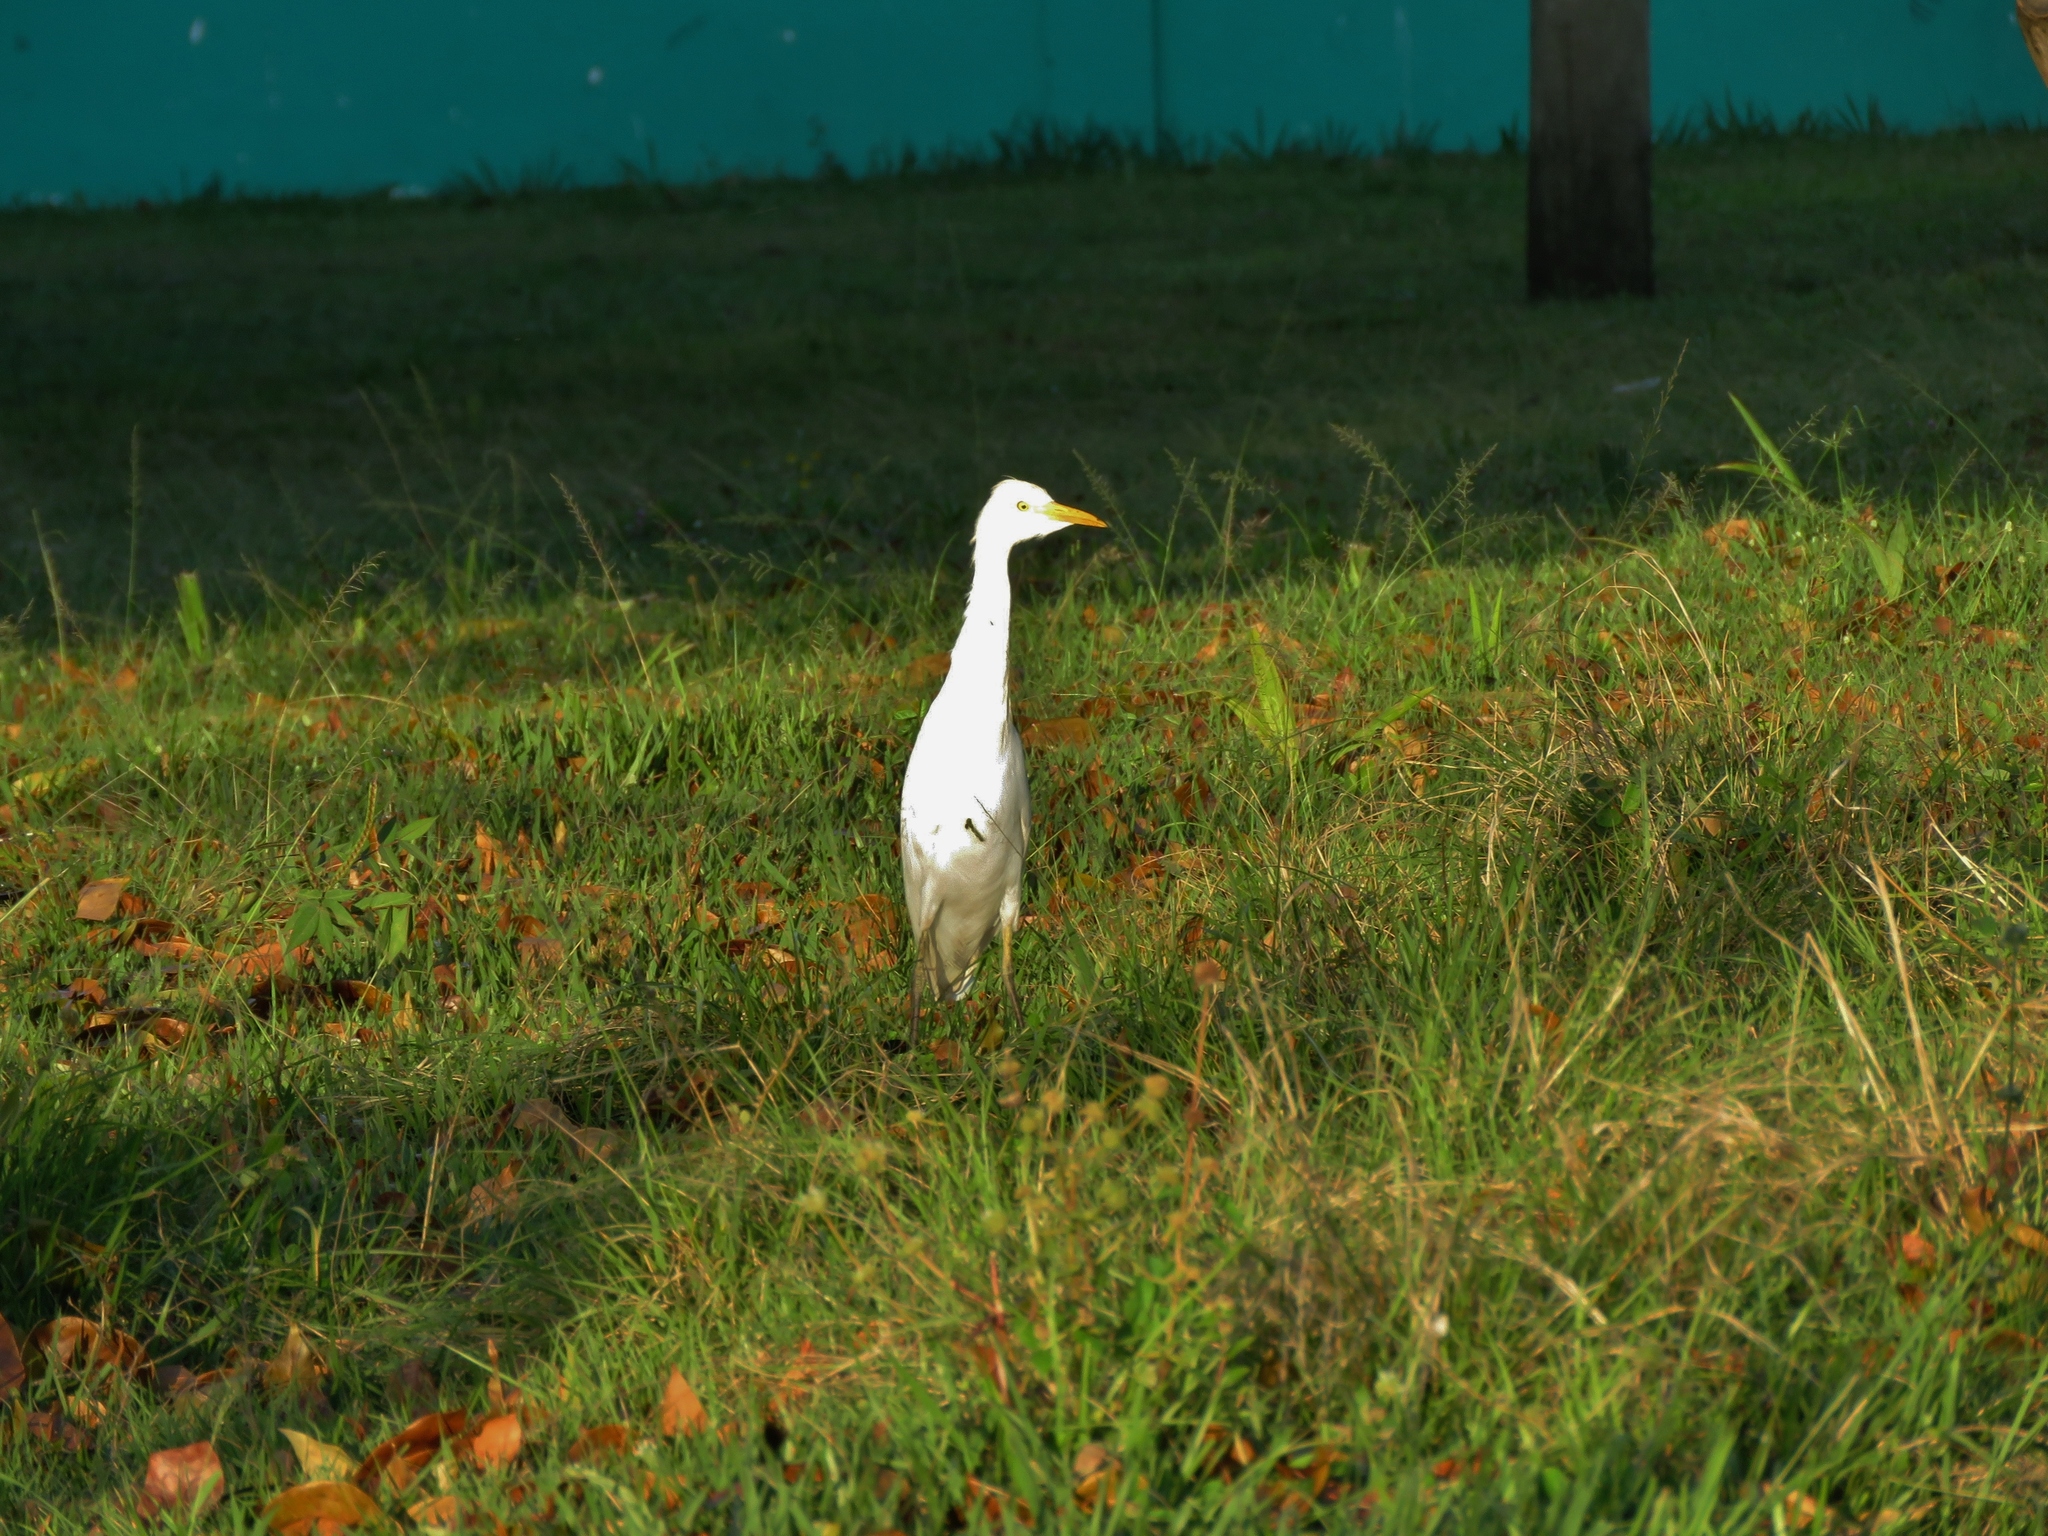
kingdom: Animalia
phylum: Chordata
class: Aves
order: Pelecaniformes
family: Ardeidae
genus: Bubulcus
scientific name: Bubulcus ibis
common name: Cattle egret
